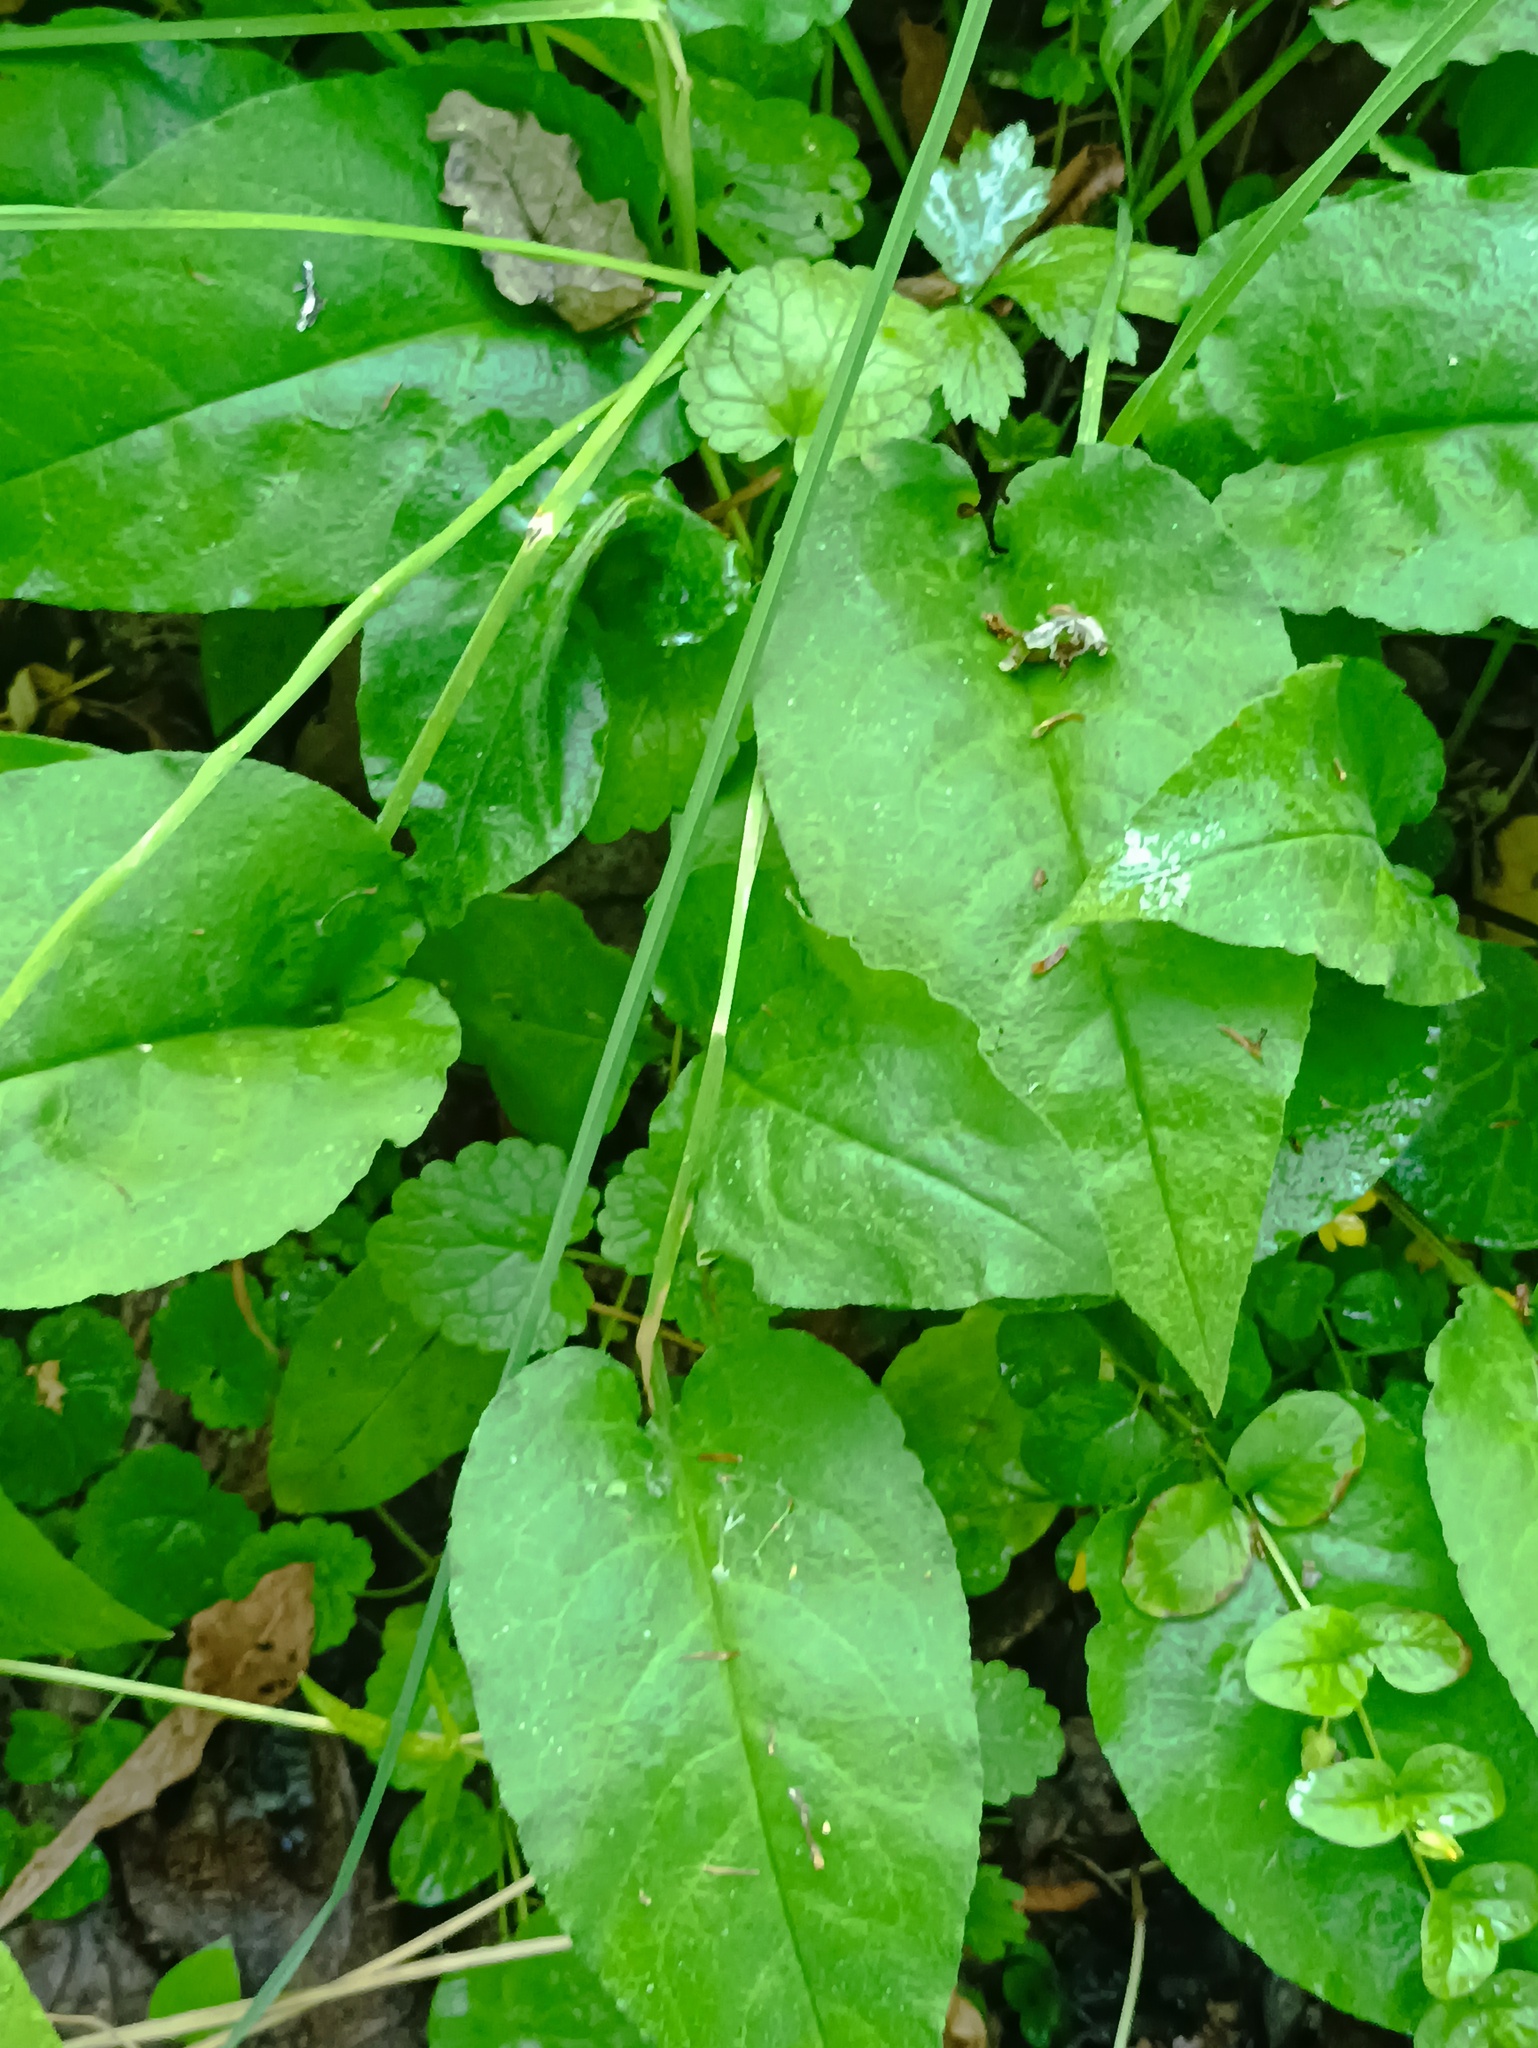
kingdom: Plantae
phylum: Tracheophyta
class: Magnoliopsida
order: Boraginales
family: Boraginaceae
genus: Pulmonaria
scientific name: Pulmonaria obscura
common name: Suffolk lungwort
